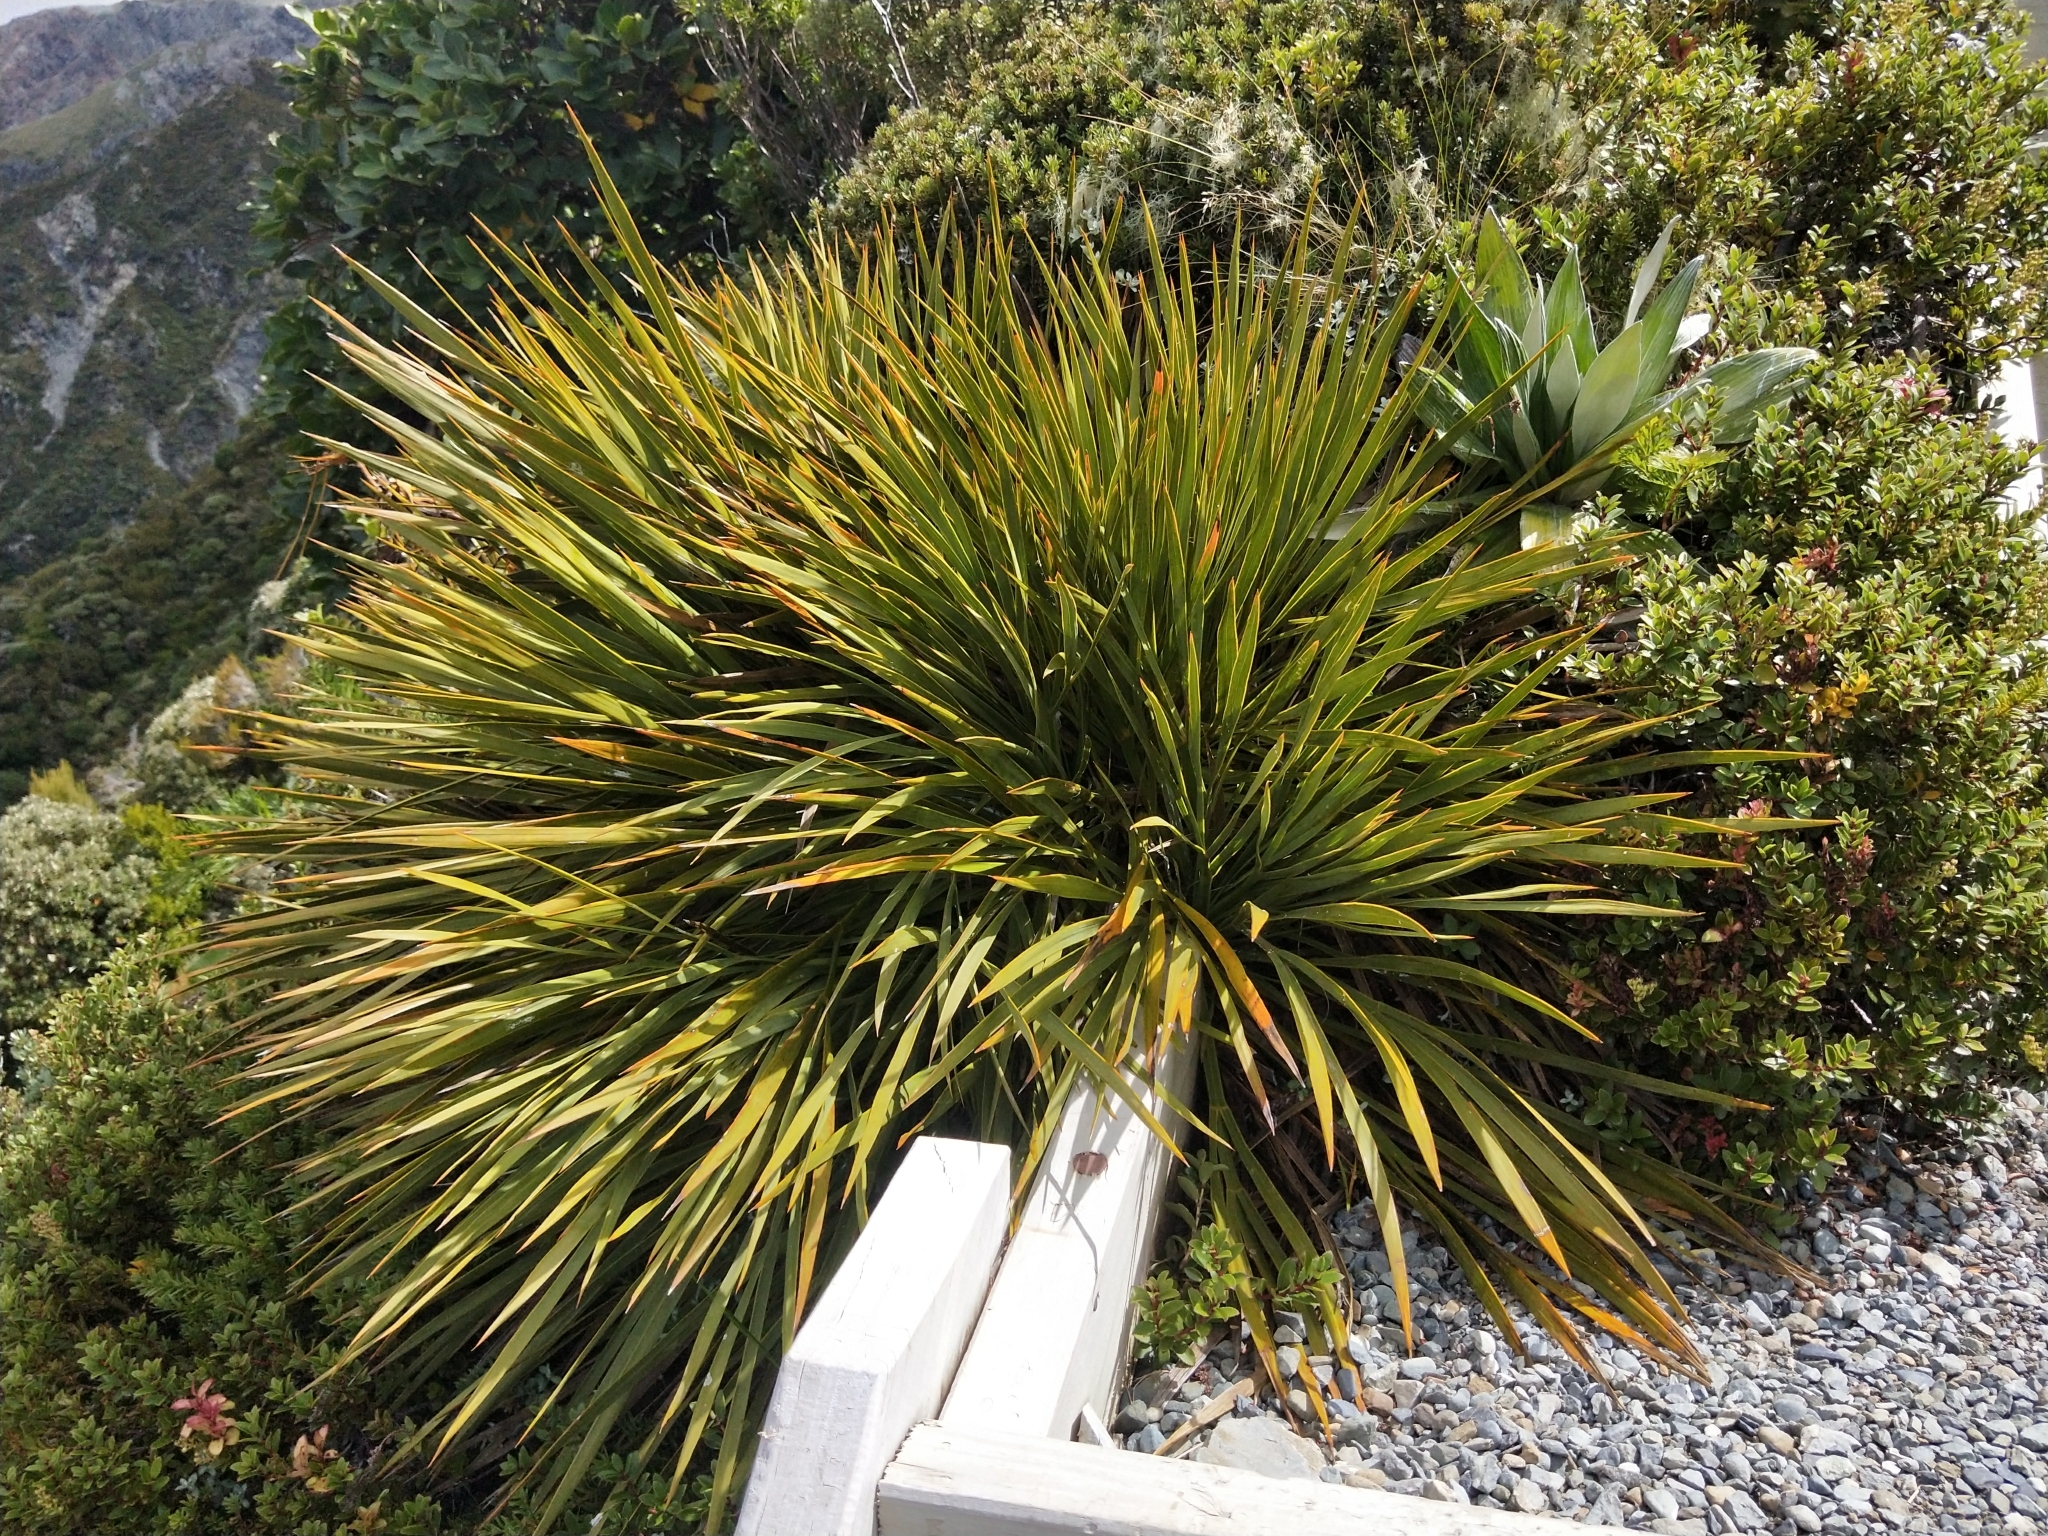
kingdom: Plantae
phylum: Tracheophyta
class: Magnoliopsida
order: Apiales
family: Apiaceae
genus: Aciphylla
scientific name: Aciphylla aurea
